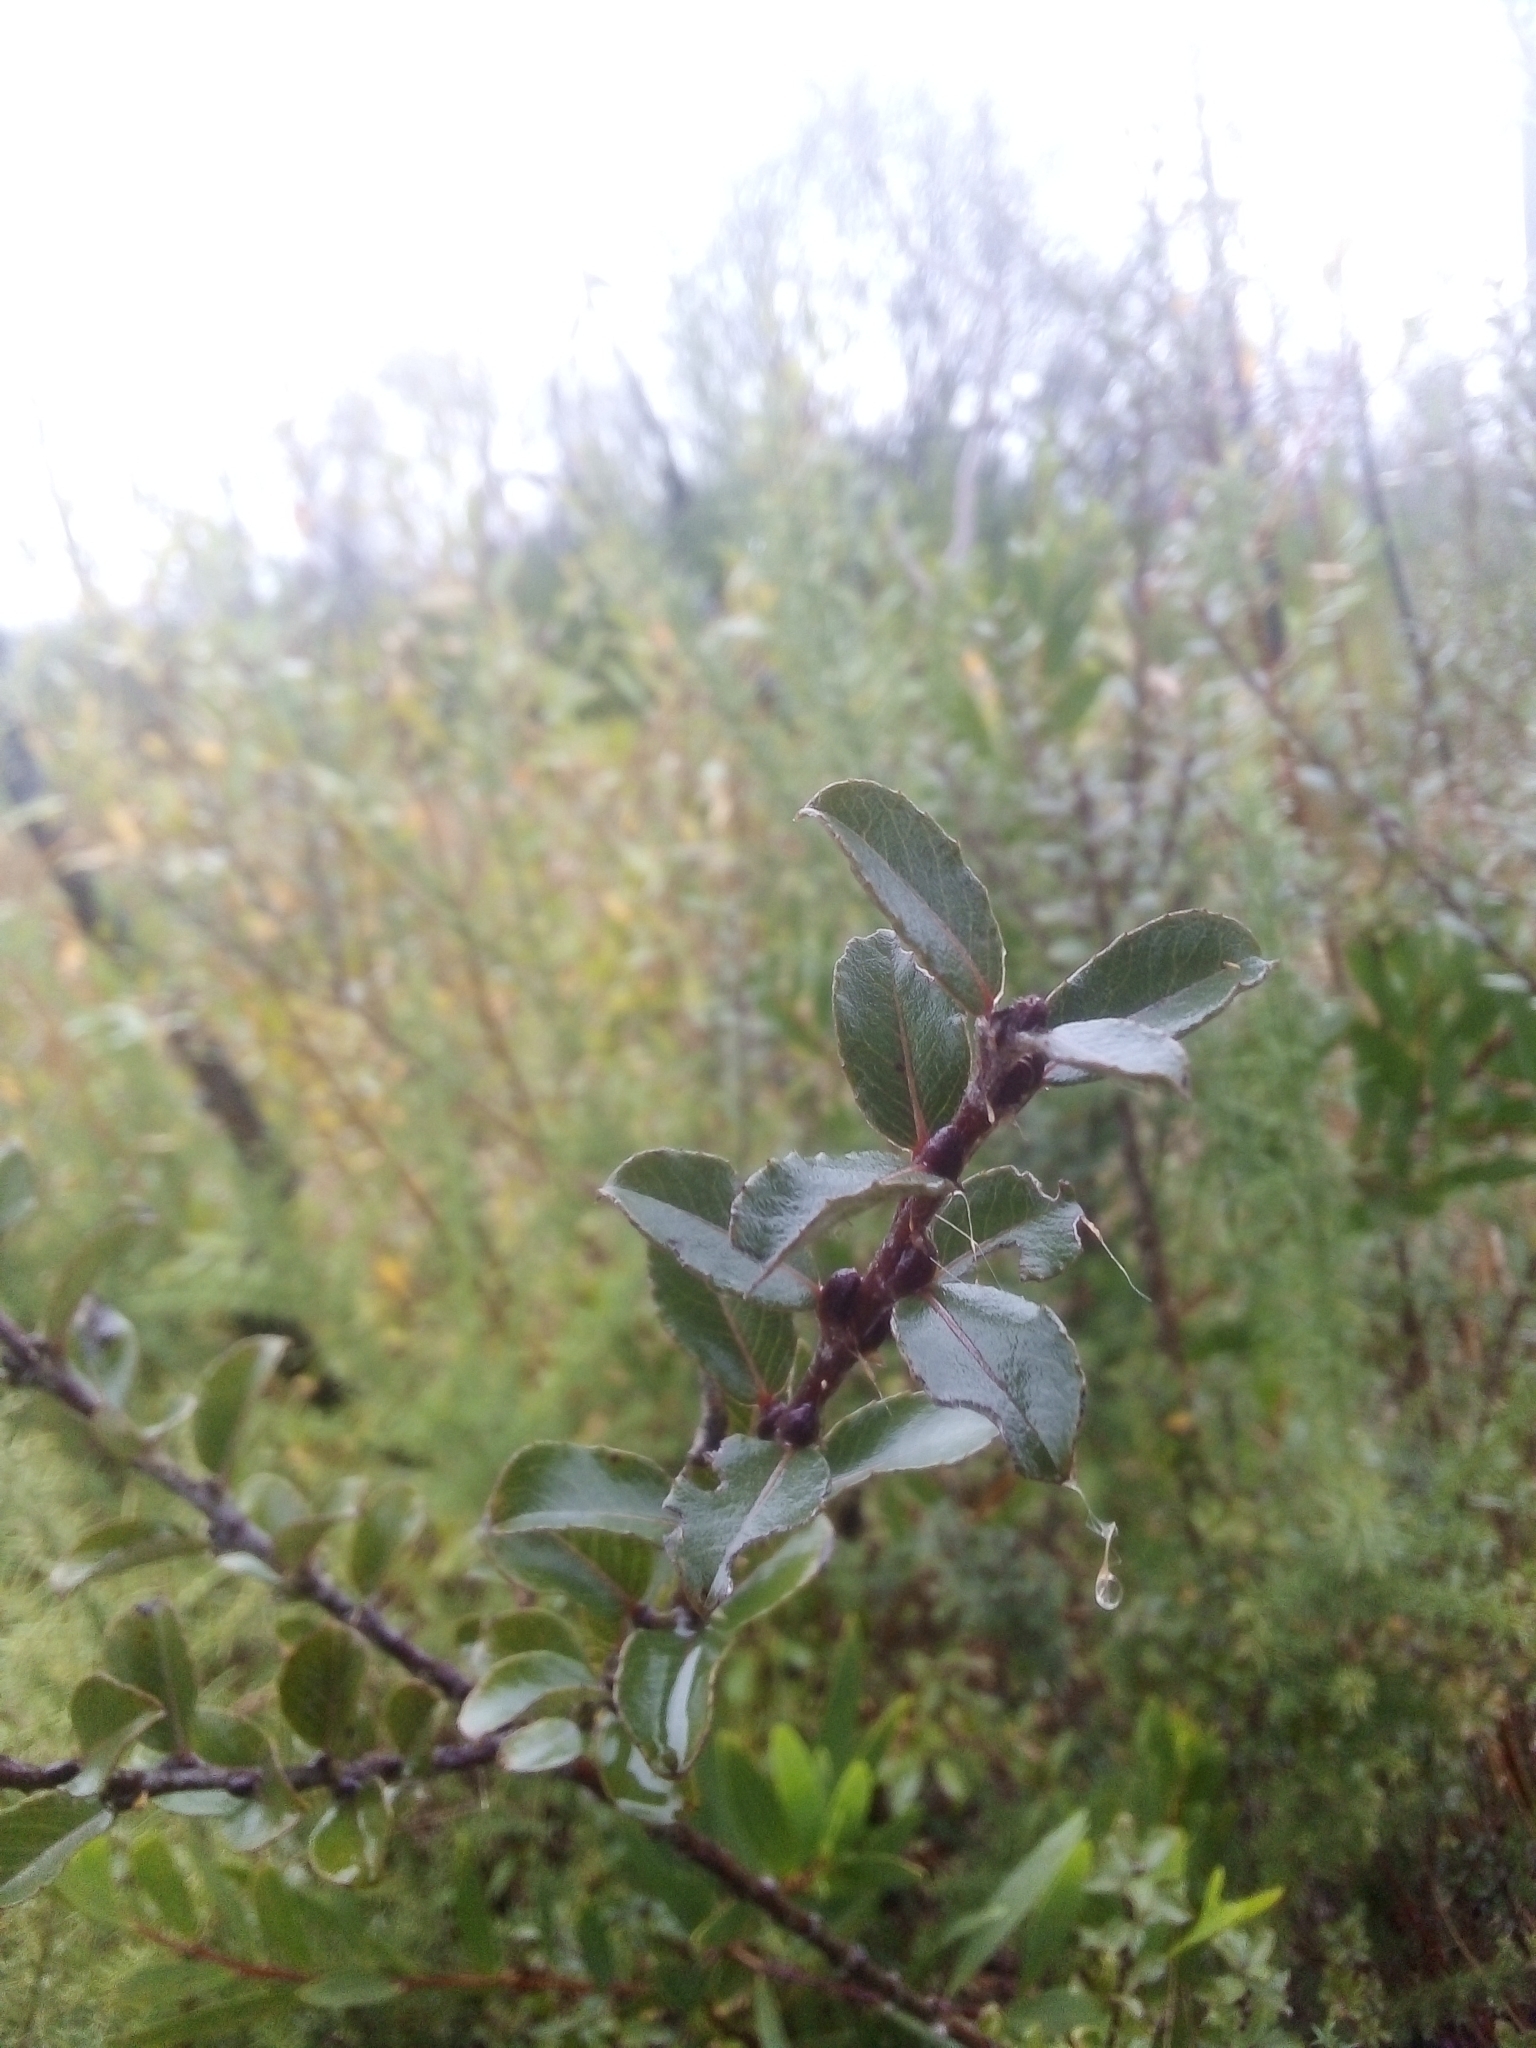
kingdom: Plantae
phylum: Tracheophyta
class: Magnoliopsida
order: Malpighiales
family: Salicaceae
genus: Salix
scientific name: Salix repens
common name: Creeping willow
